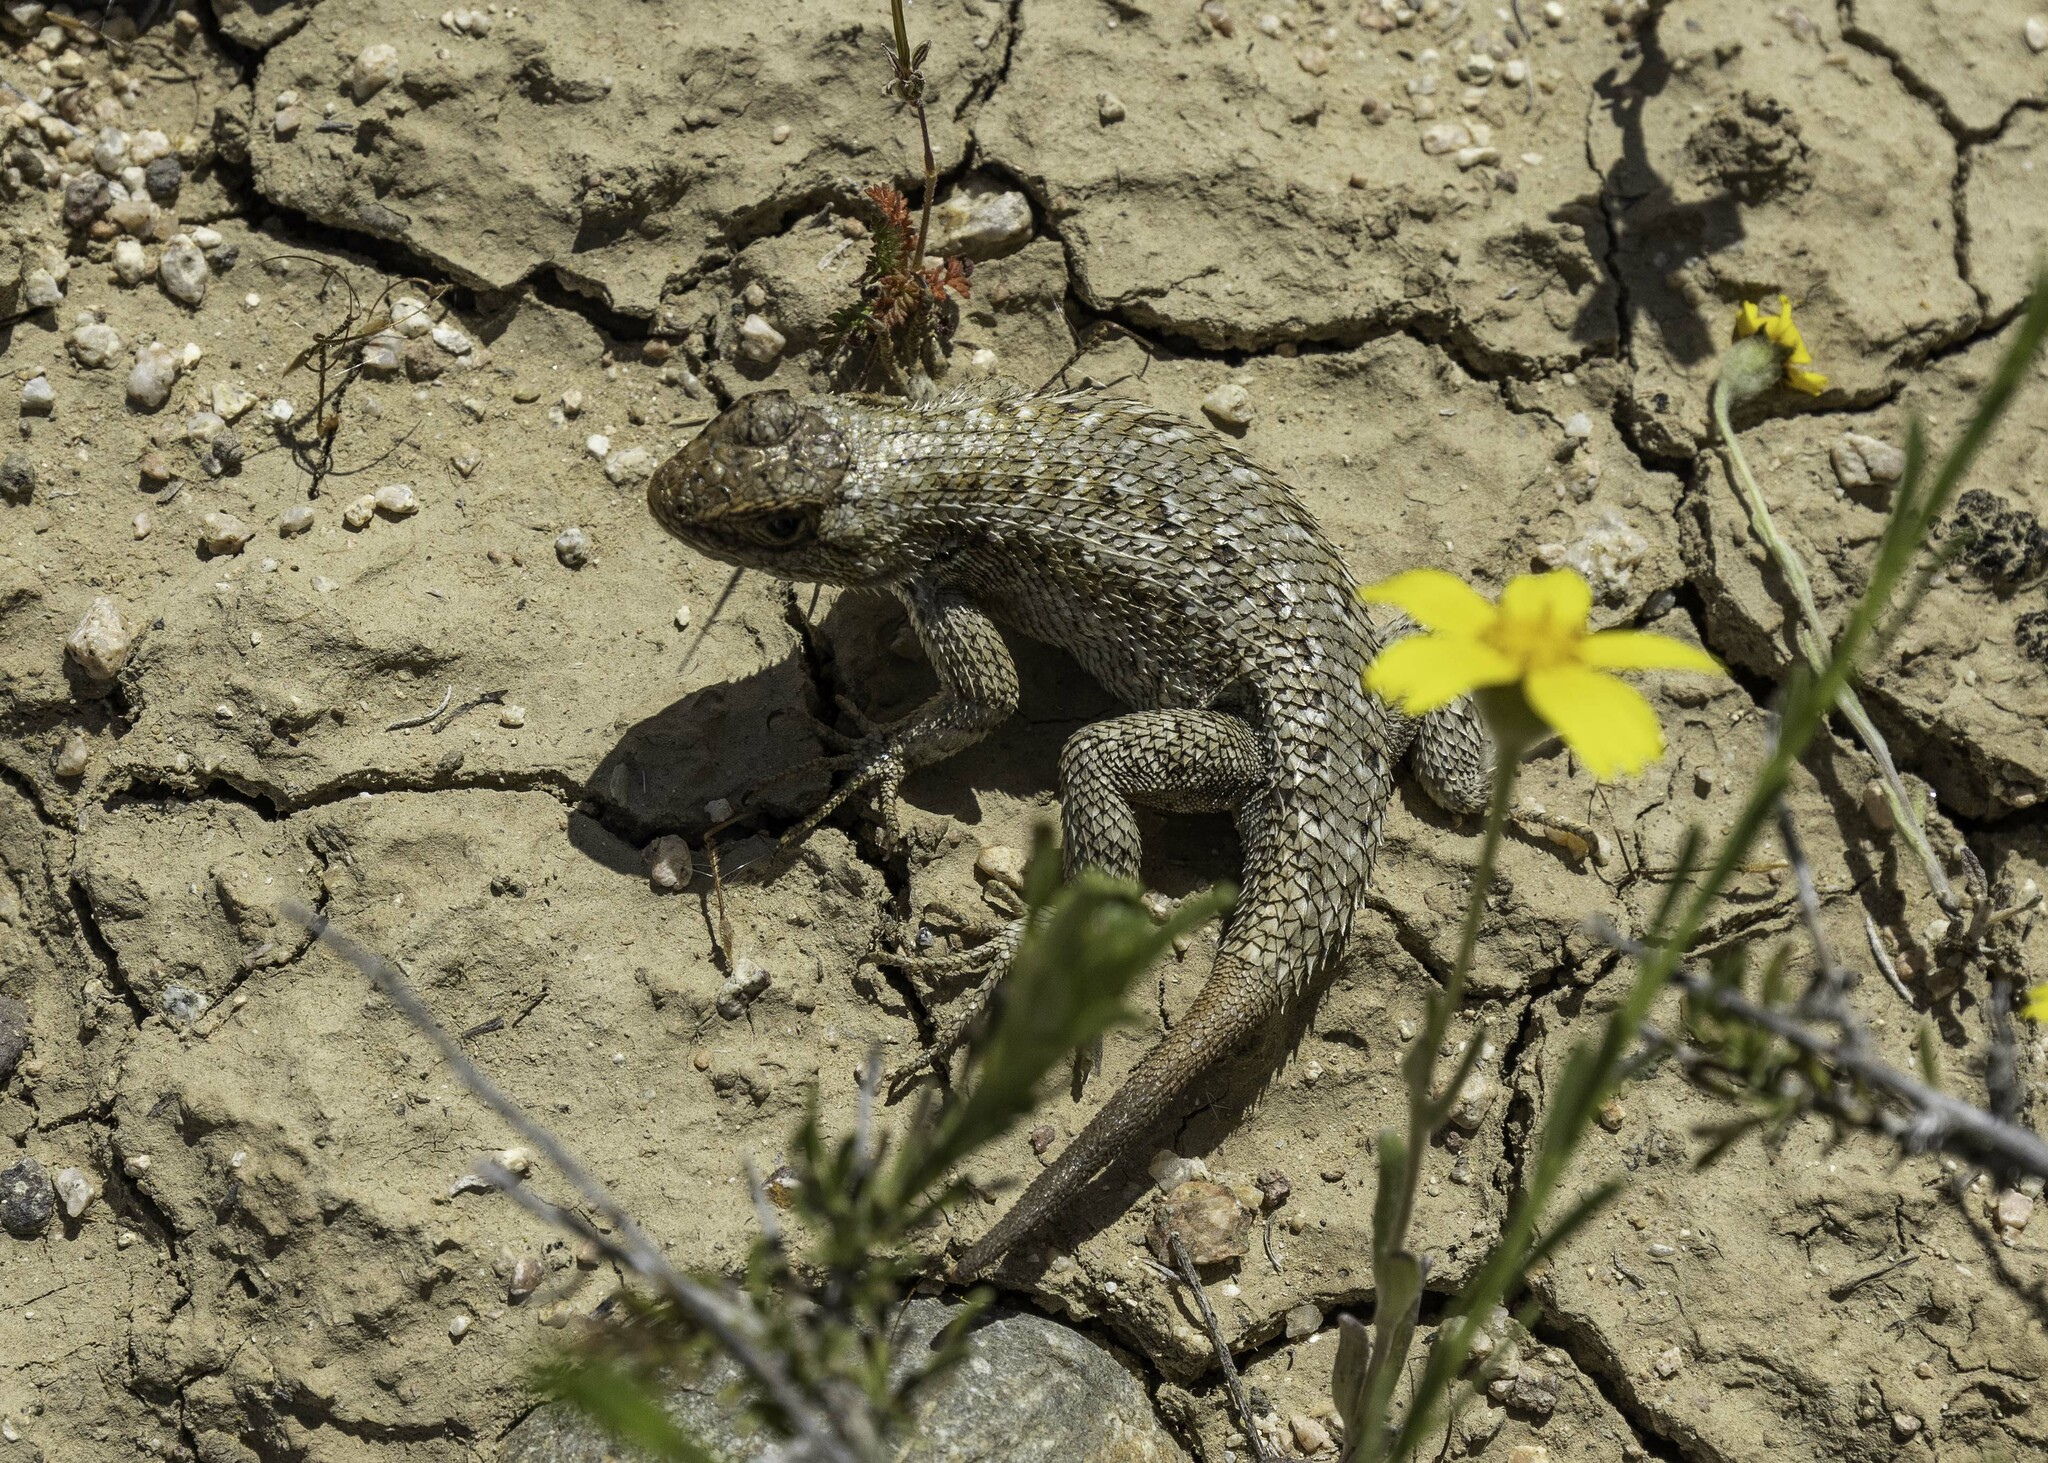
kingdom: Animalia
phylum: Chordata
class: Squamata
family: Phrynosomatidae
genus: Sceloporus
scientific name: Sceloporus occidentalis
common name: Western fence lizard
